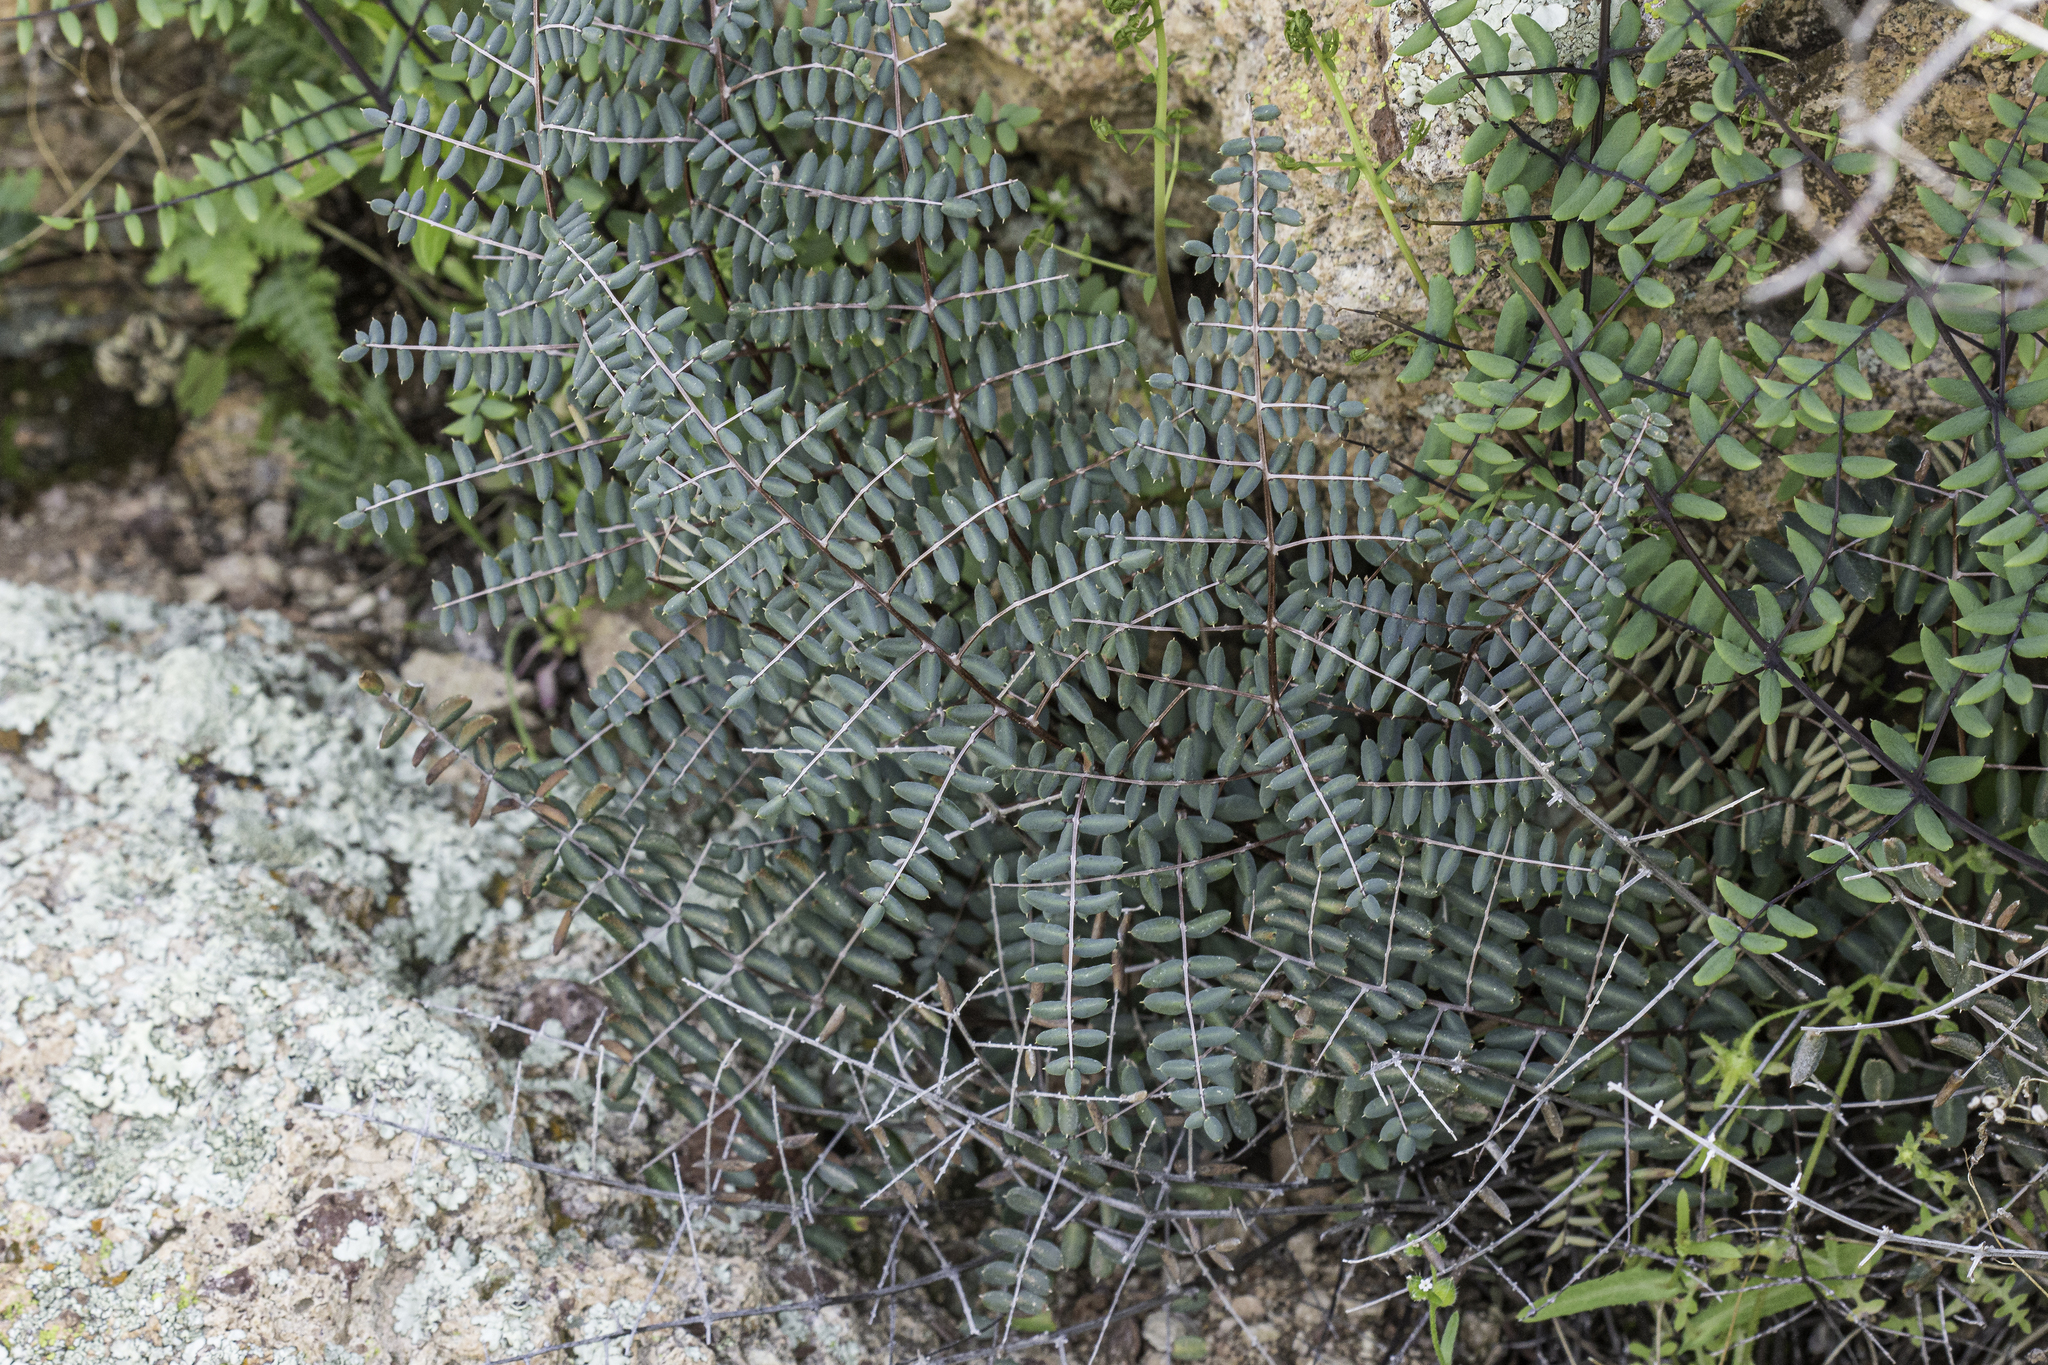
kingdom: Plantae
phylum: Tracheophyta
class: Polypodiopsida
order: Polypodiales
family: Pteridaceae
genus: Pellaea
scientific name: Pellaea truncata
